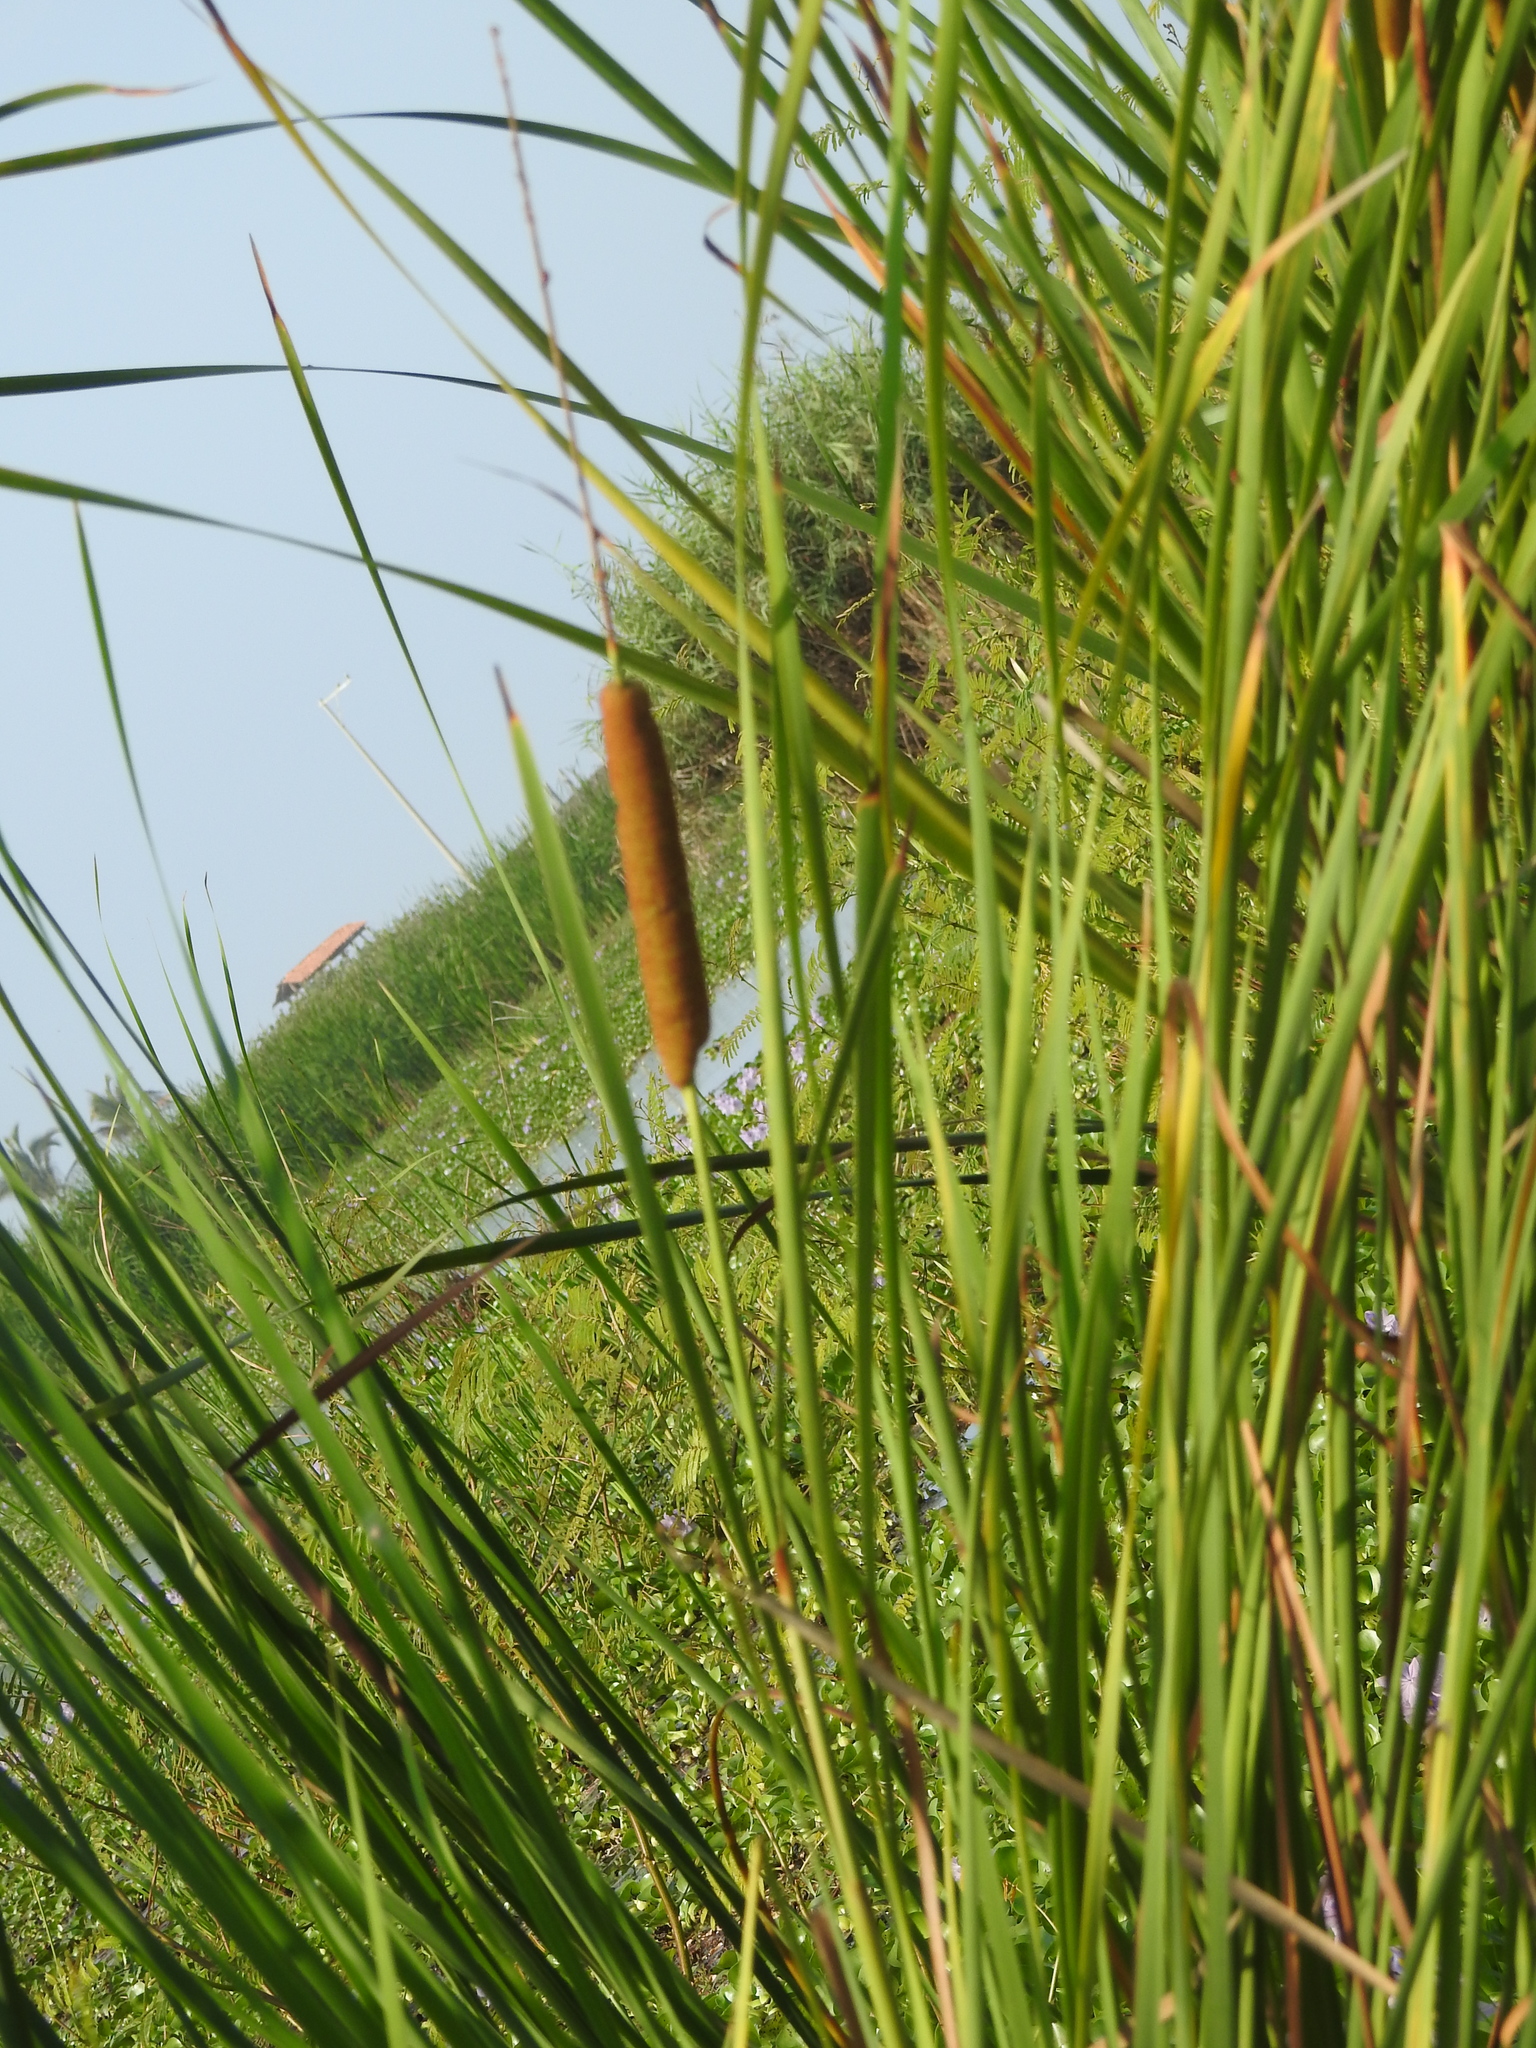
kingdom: Plantae
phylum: Tracheophyta
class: Liliopsida
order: Poales
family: Typhaceae
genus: Typha
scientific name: Typha domingensis
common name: Southern cattail
